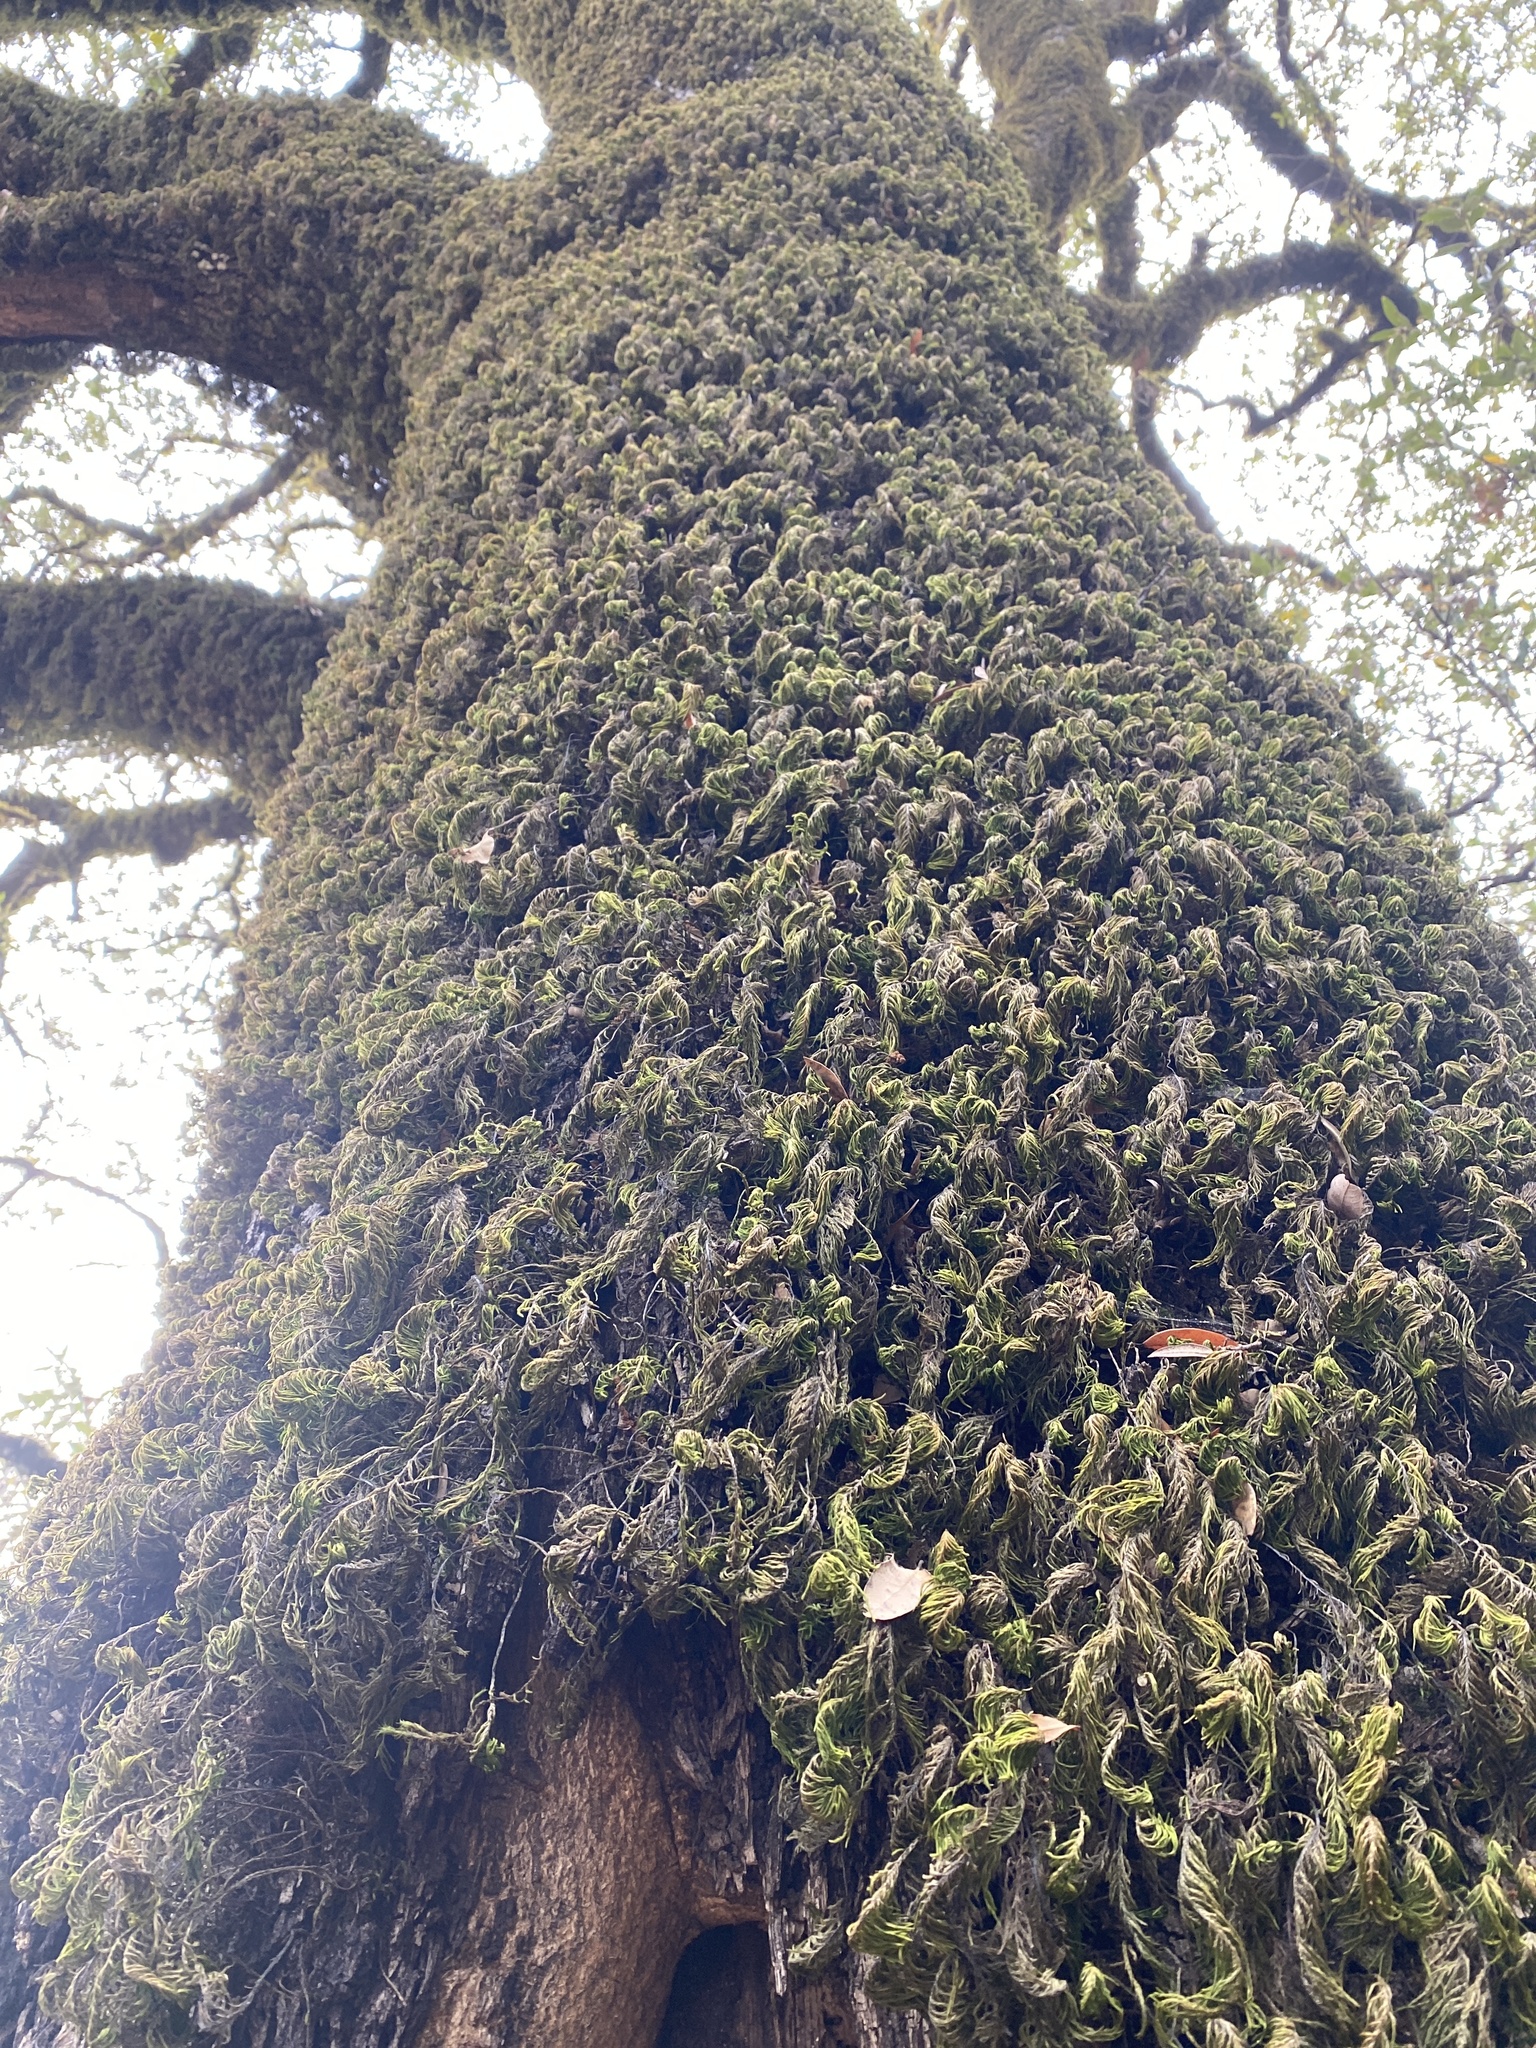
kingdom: Plantae
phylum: Bryophyta
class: Bryopsida
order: Hypnales
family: Cryphaeaceae
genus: Dendroalsia
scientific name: Dendroalsia abietina
